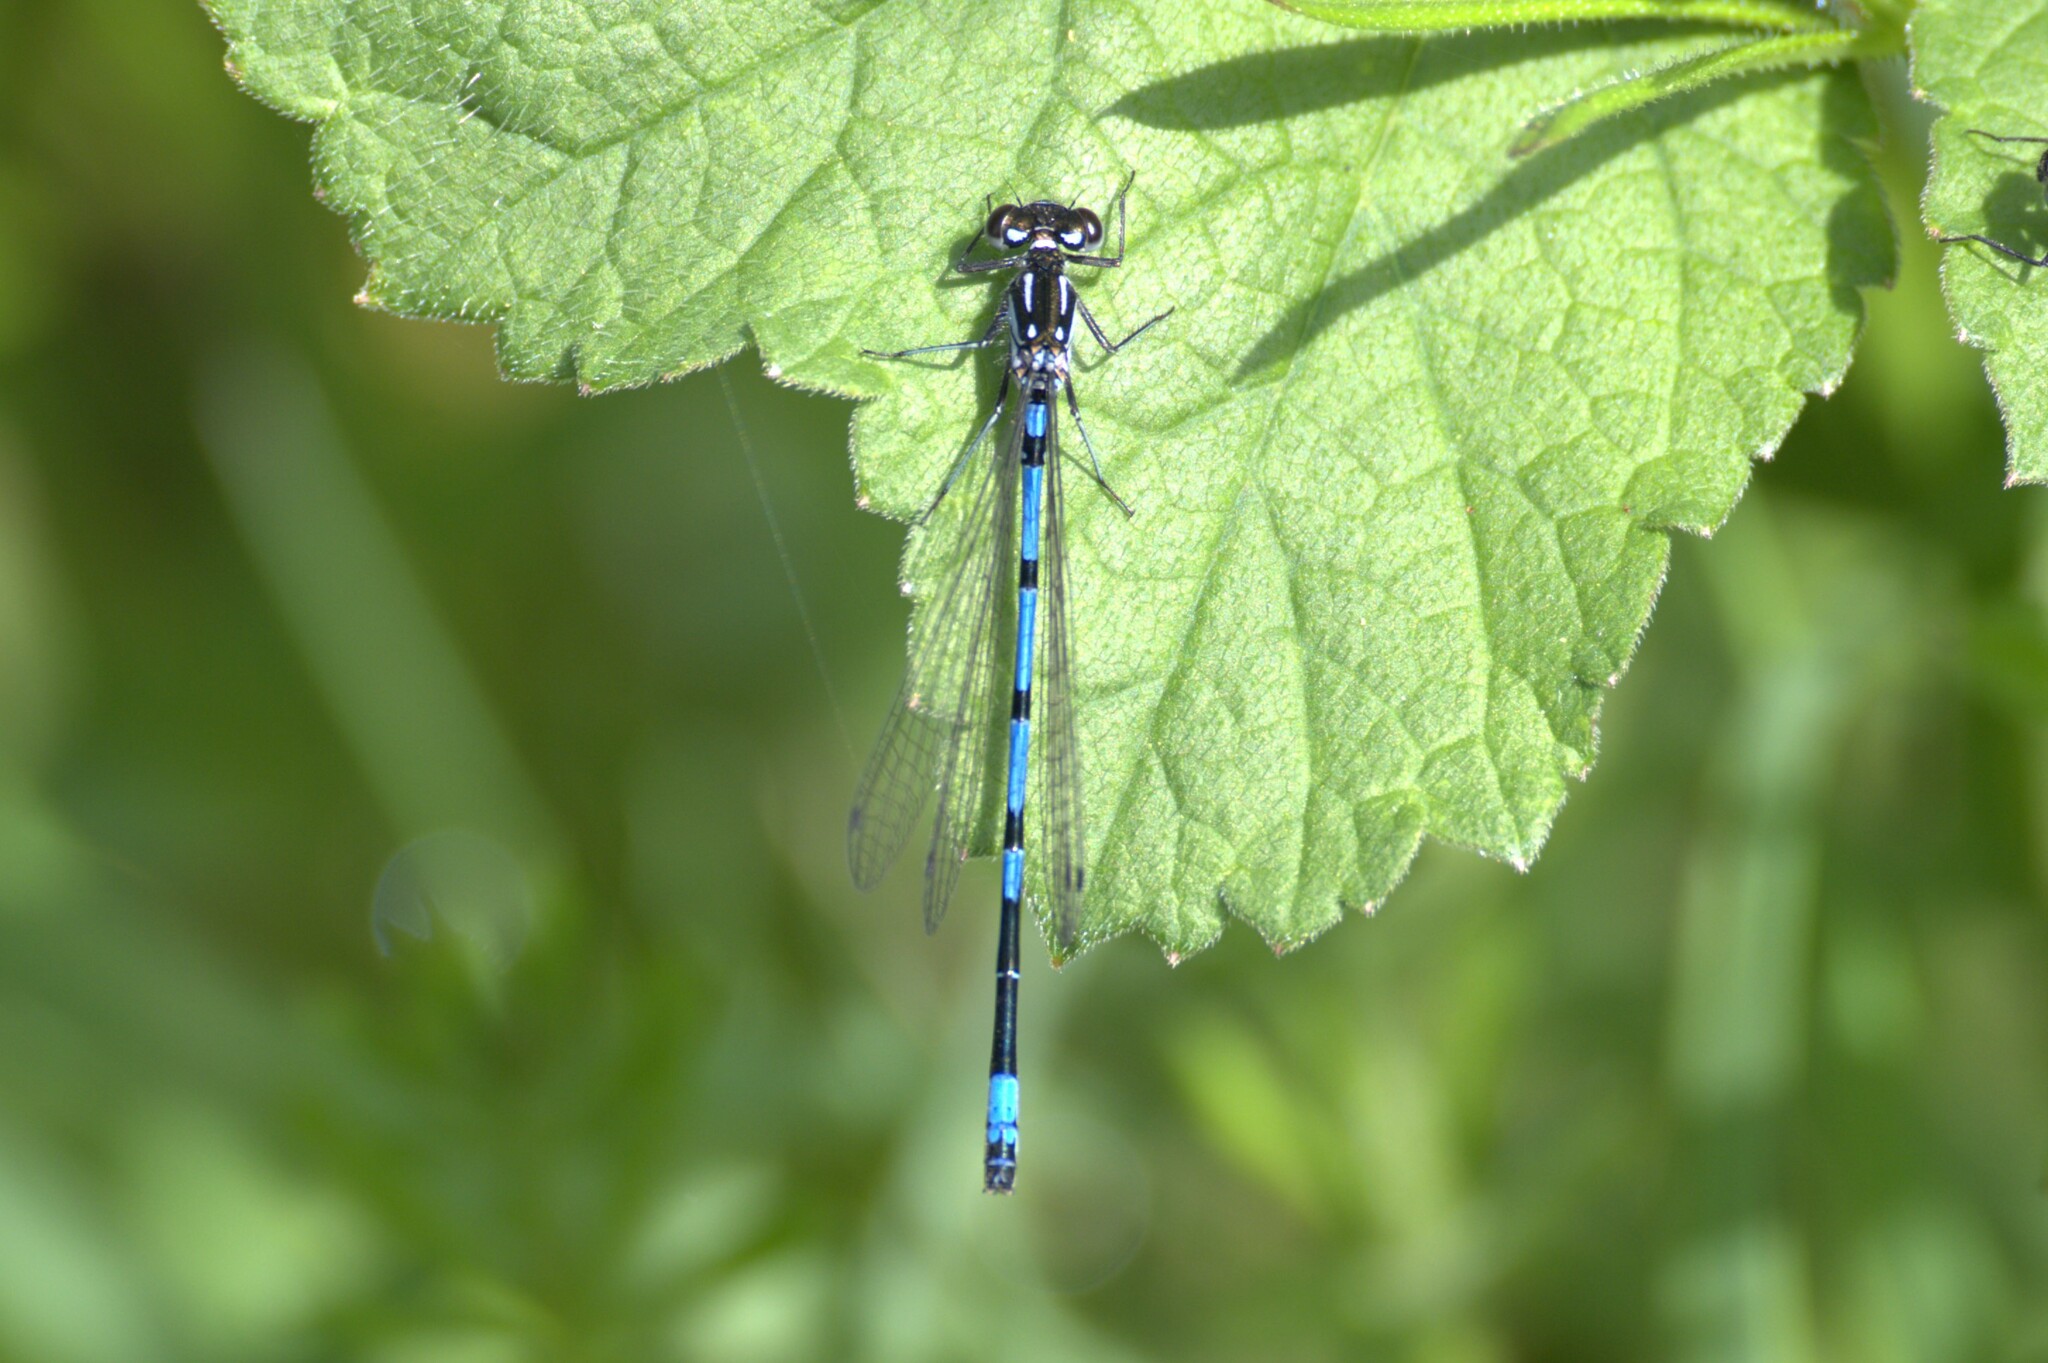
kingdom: Animalia
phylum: Arthropoda
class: Insecta
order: Odonata
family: Coenagrionidae
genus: Coenagrion
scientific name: Coenagrion pulchellum
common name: Variable bluet
